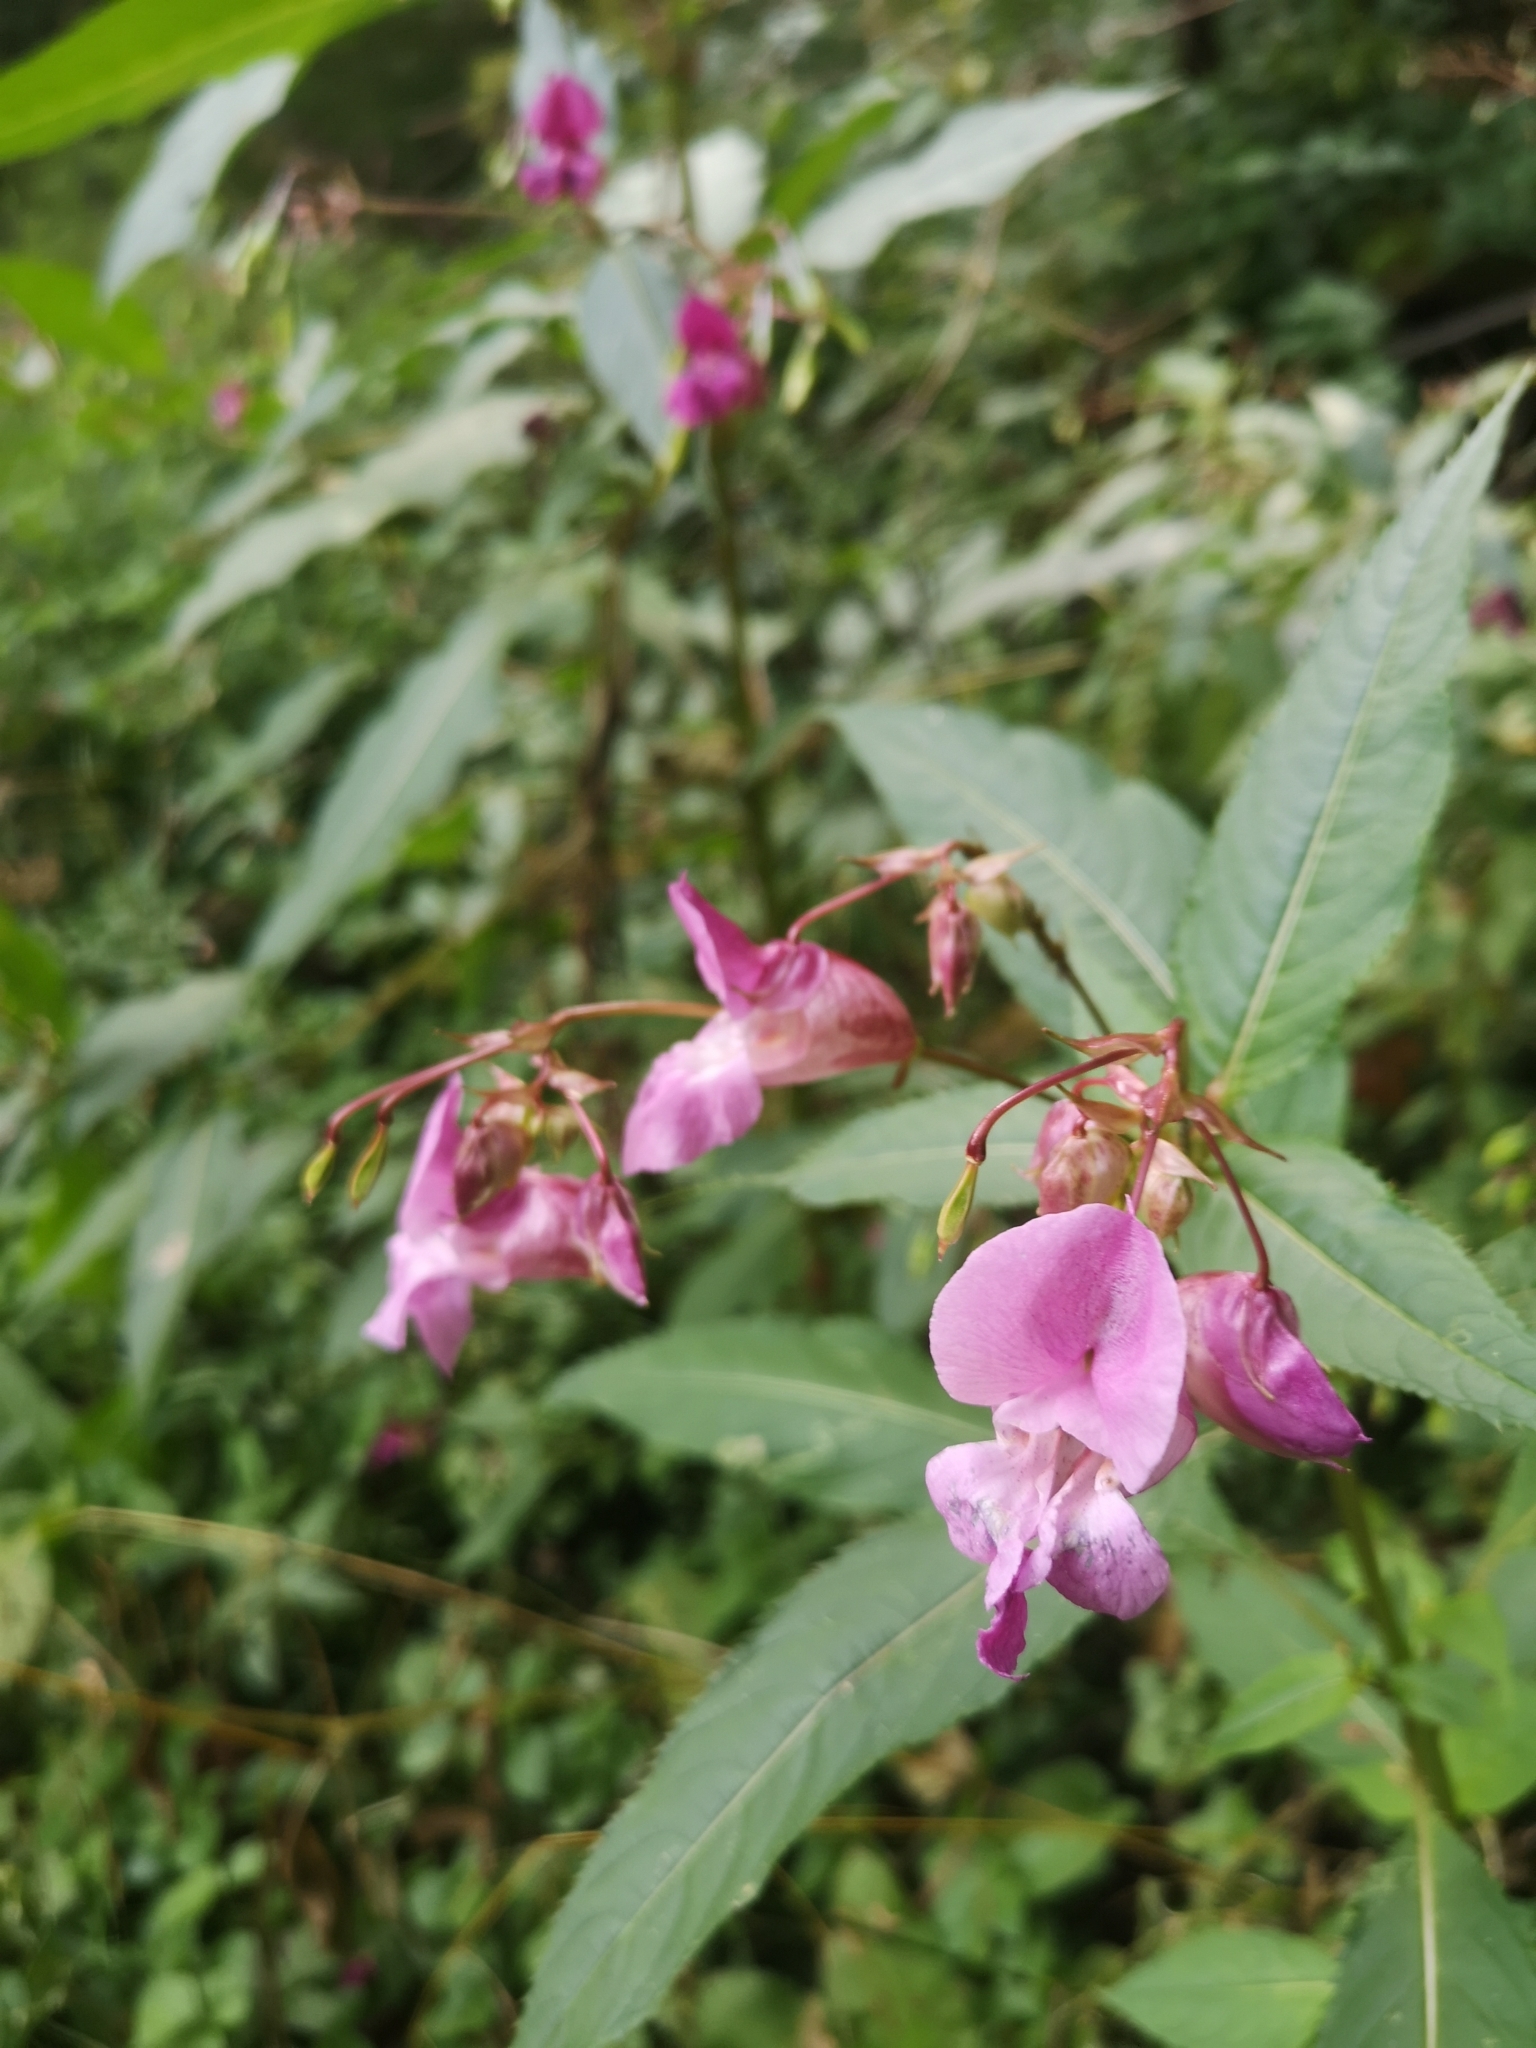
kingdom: Plantae
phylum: Tracheophyta
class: Magnoliopsida
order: Ericales
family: Balsaminaceae
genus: Impatiens
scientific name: Impatiens glandulifera
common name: Himalayan balsam
